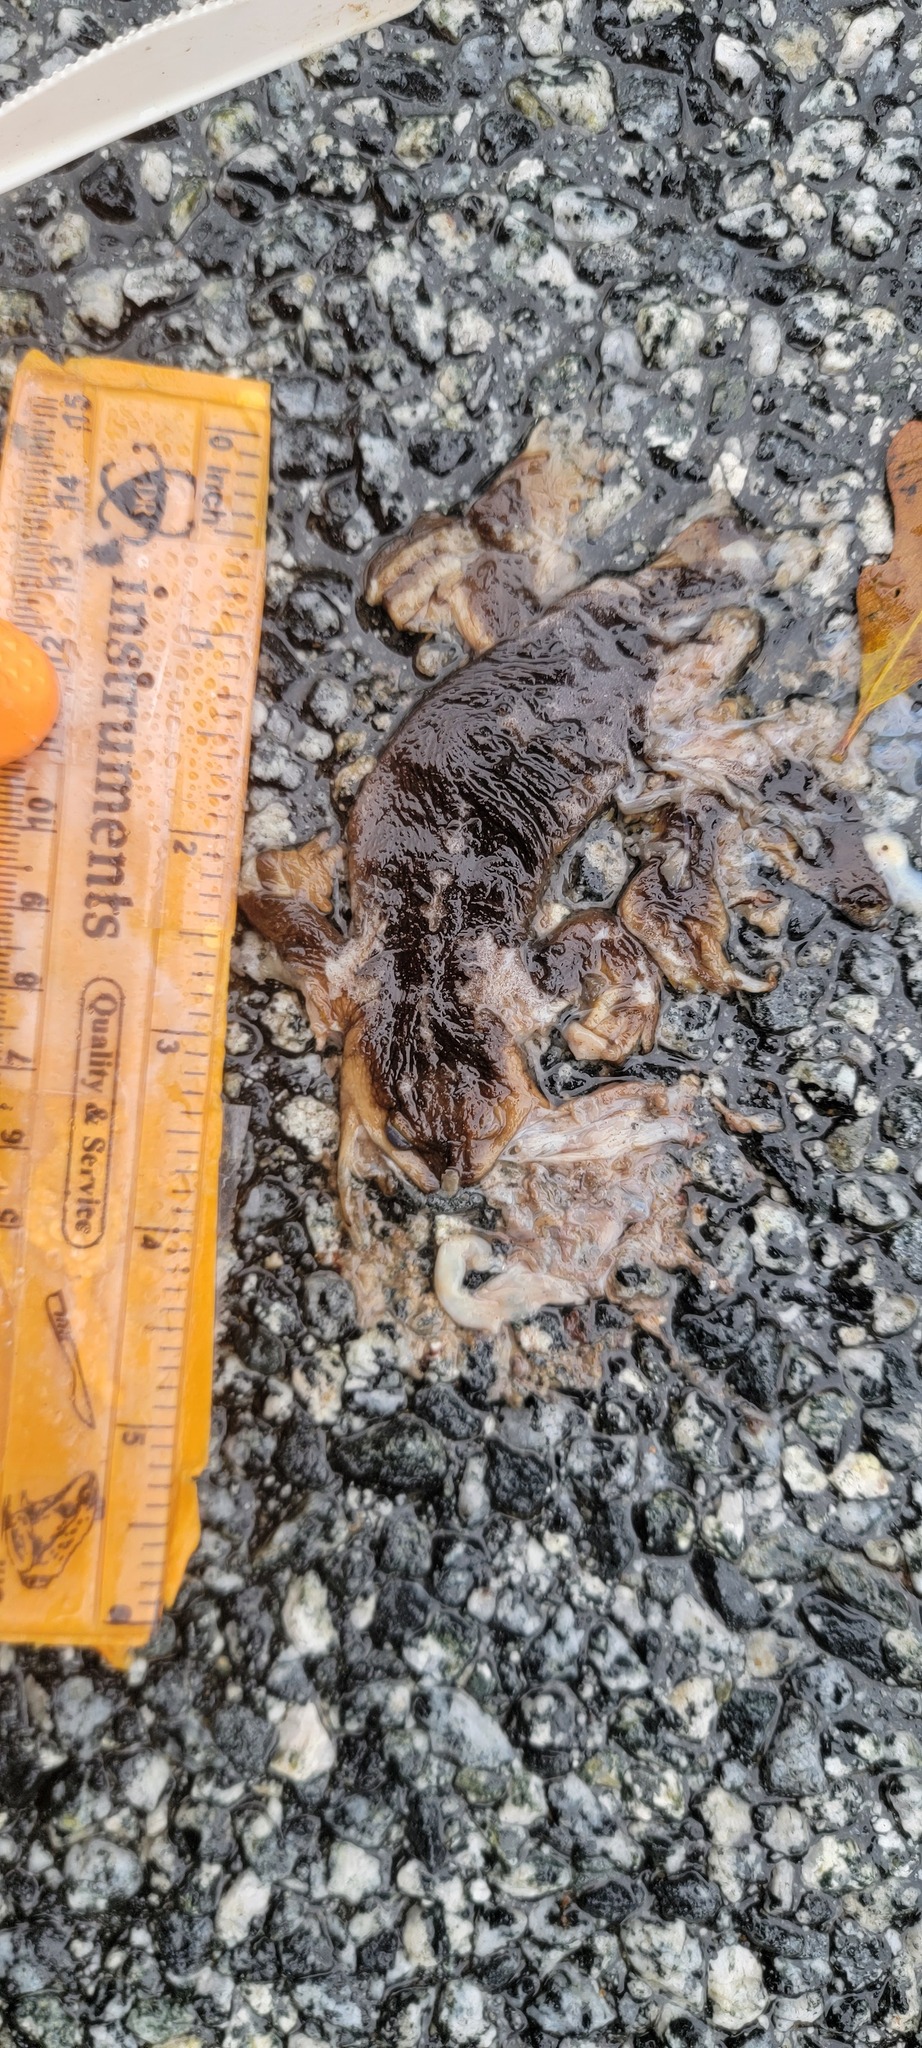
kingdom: Animalia
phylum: Chordata
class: Amphibia
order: Caudata
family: Salamandridae
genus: Taricha
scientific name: Taricha
